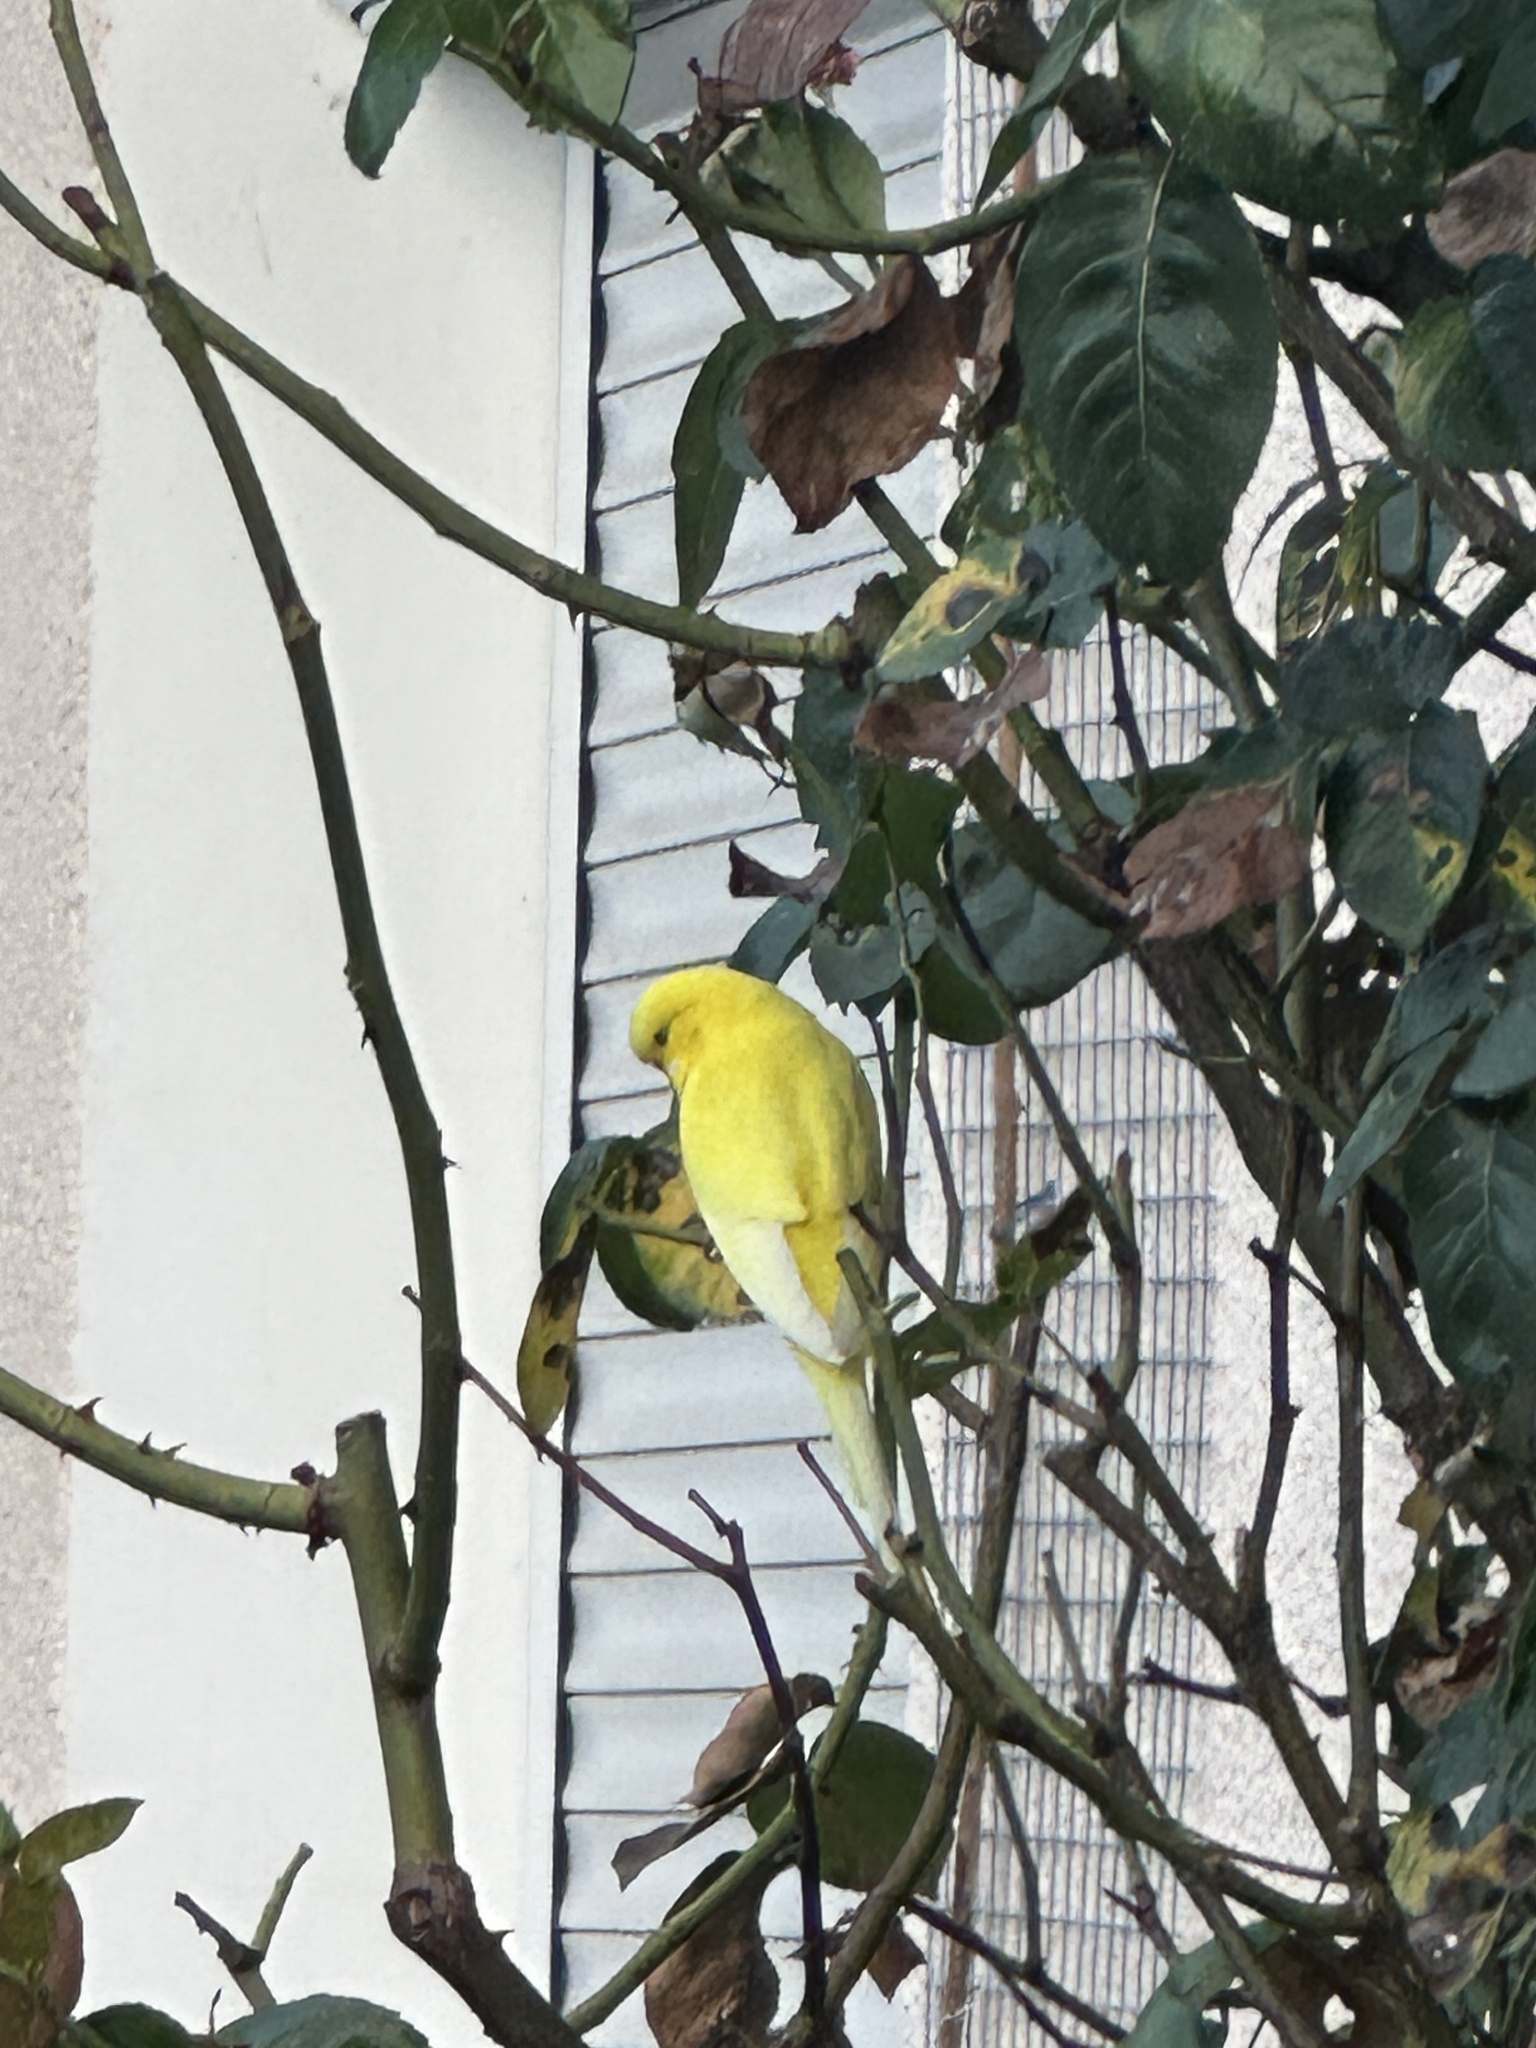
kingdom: Animalia
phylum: Chordata
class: Aves
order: Psittaciformes
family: Psittacidae
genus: Melopsittacus
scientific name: Melopsittacus undulatus
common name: Budgerigar
